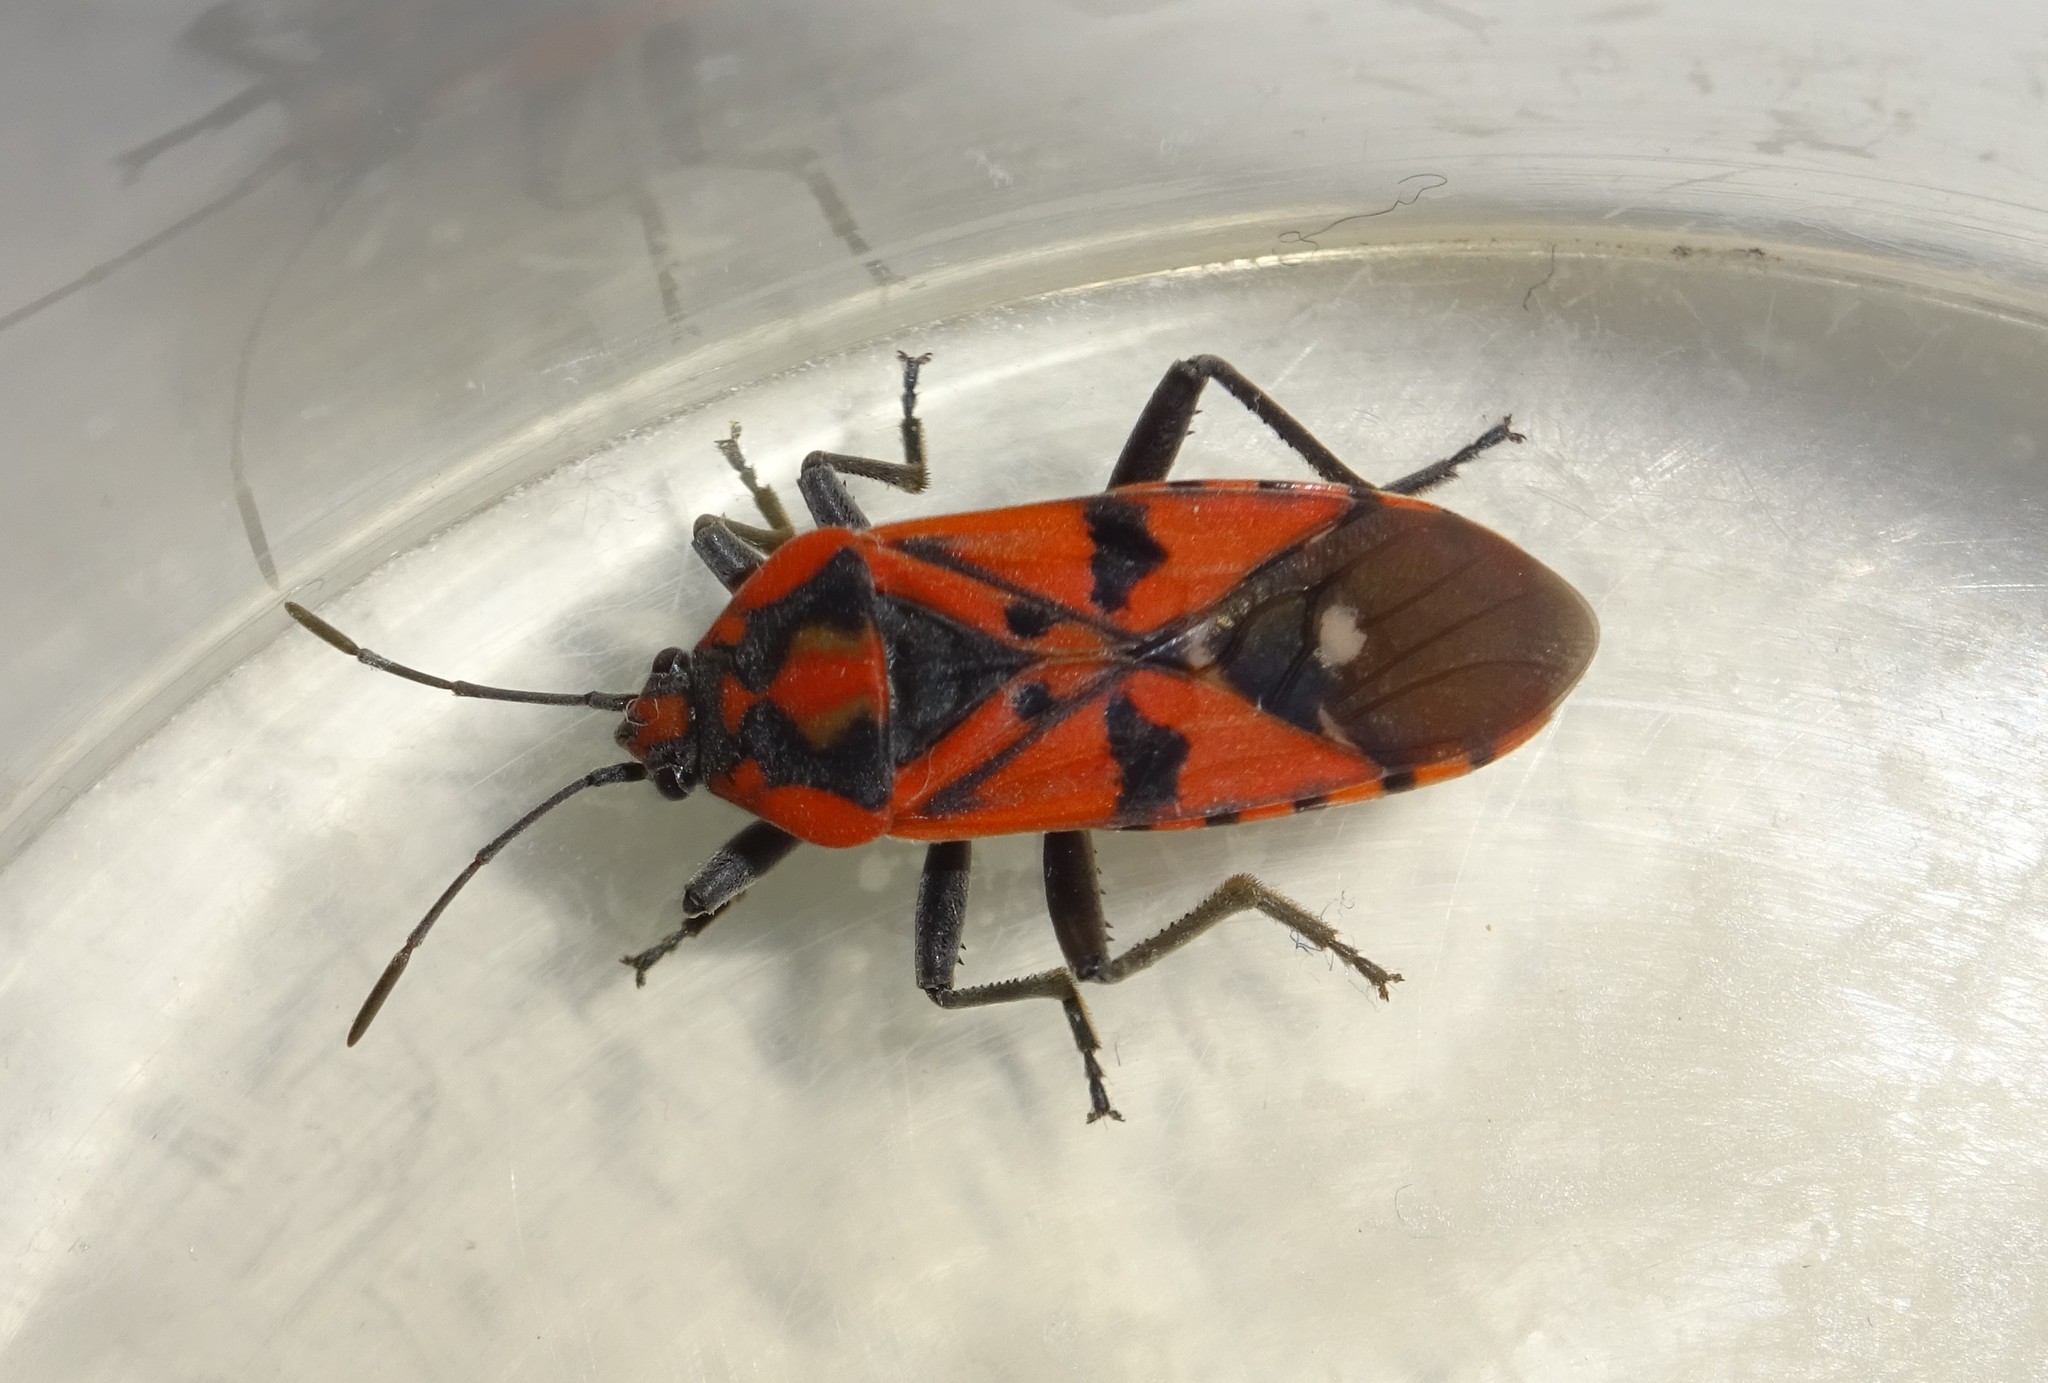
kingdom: Animalia
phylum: Arthropoda
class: Insecta
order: Hemiptera
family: Lygaeidae
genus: Spilostethus
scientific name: Spilostethus pandurus
